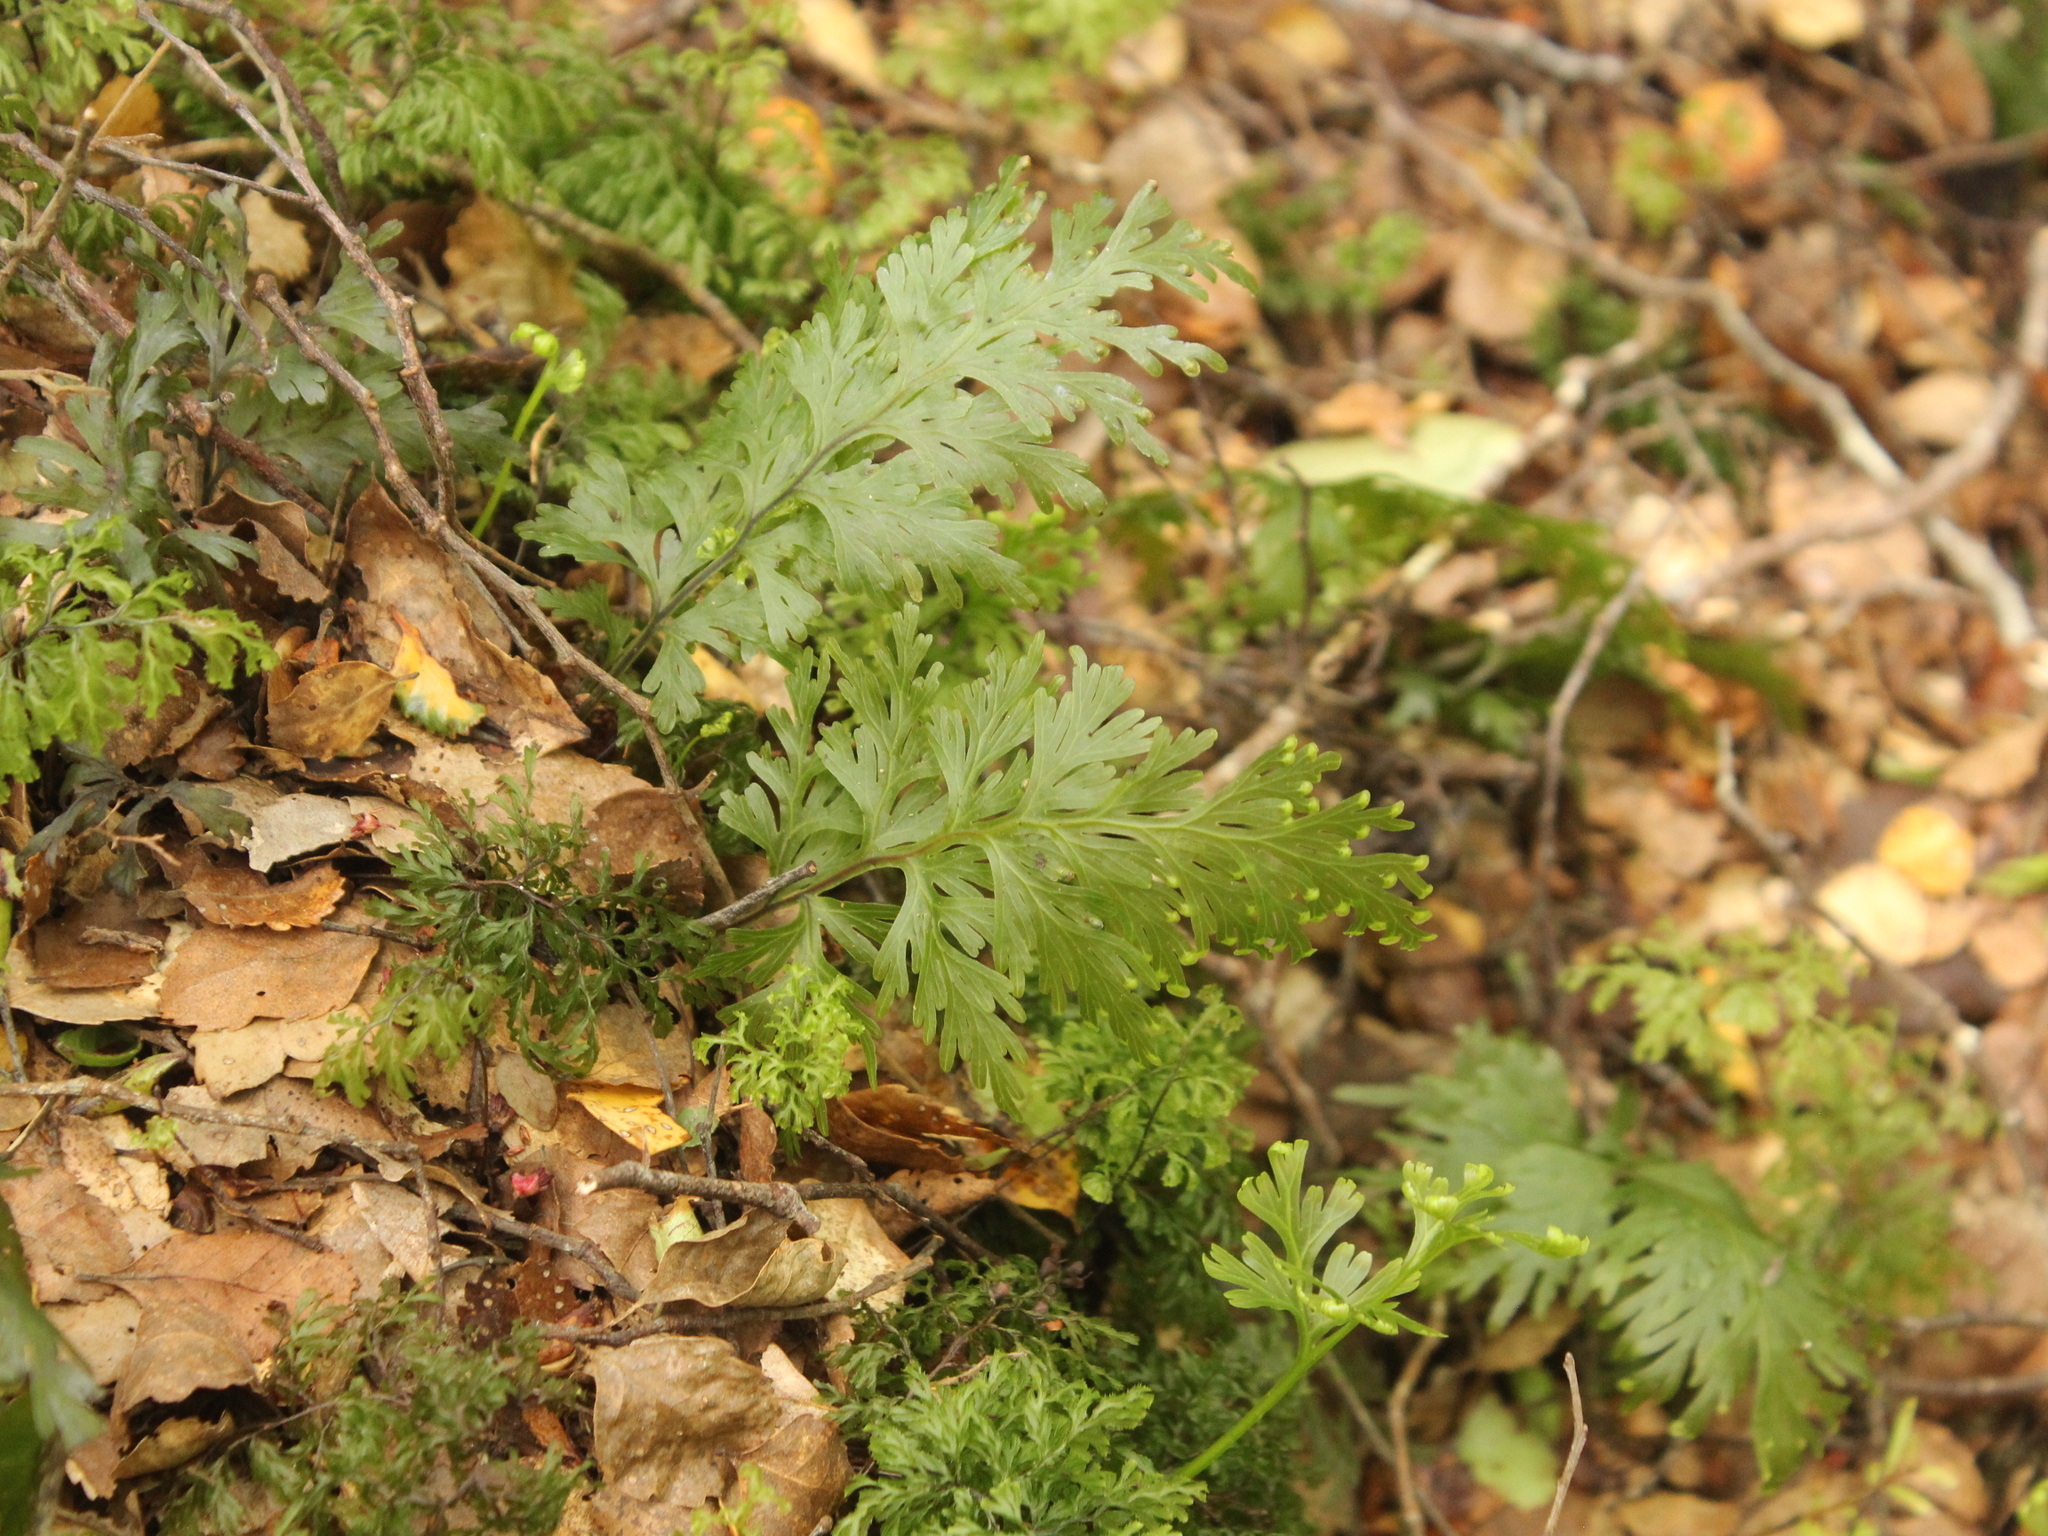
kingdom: Plantae
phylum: Tracheophyta
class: Polypodiopsida
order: Hymenophyllales
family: Hymenophyllaceae
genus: Hymenophyllum
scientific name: Hymenophyllum dilatatum
